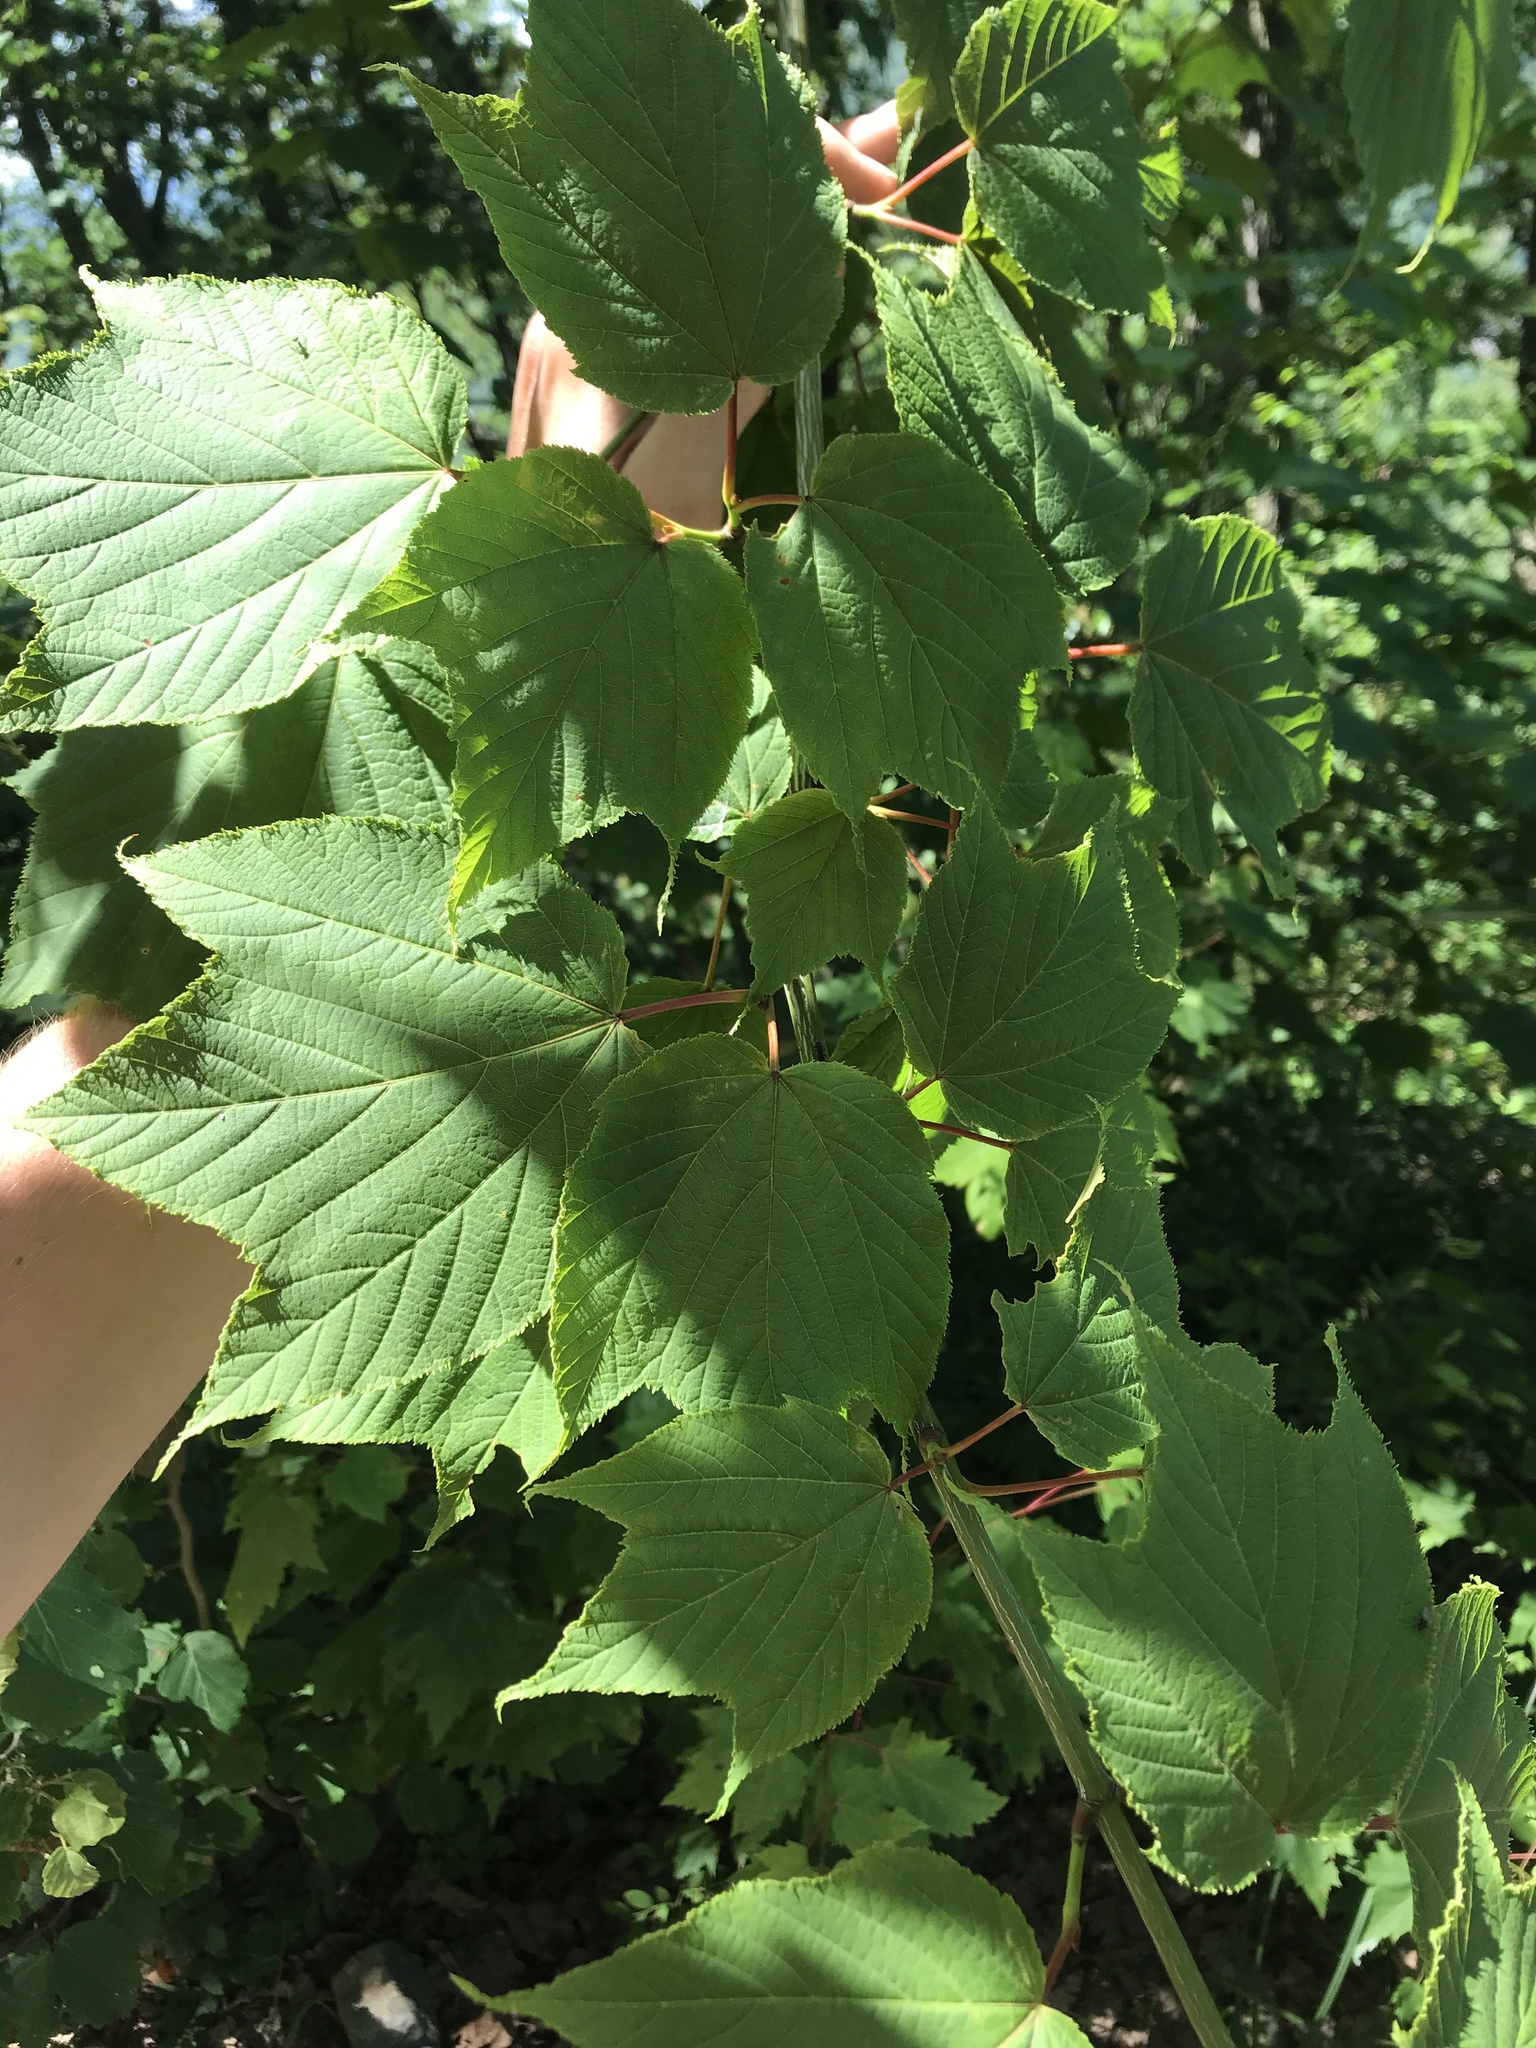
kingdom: Plantae
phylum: Tracheophyta
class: Magnoliopsida
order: Sapindales
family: Sapindaceae
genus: Acer
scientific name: Acer pensylvanicum
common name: Moosewood
